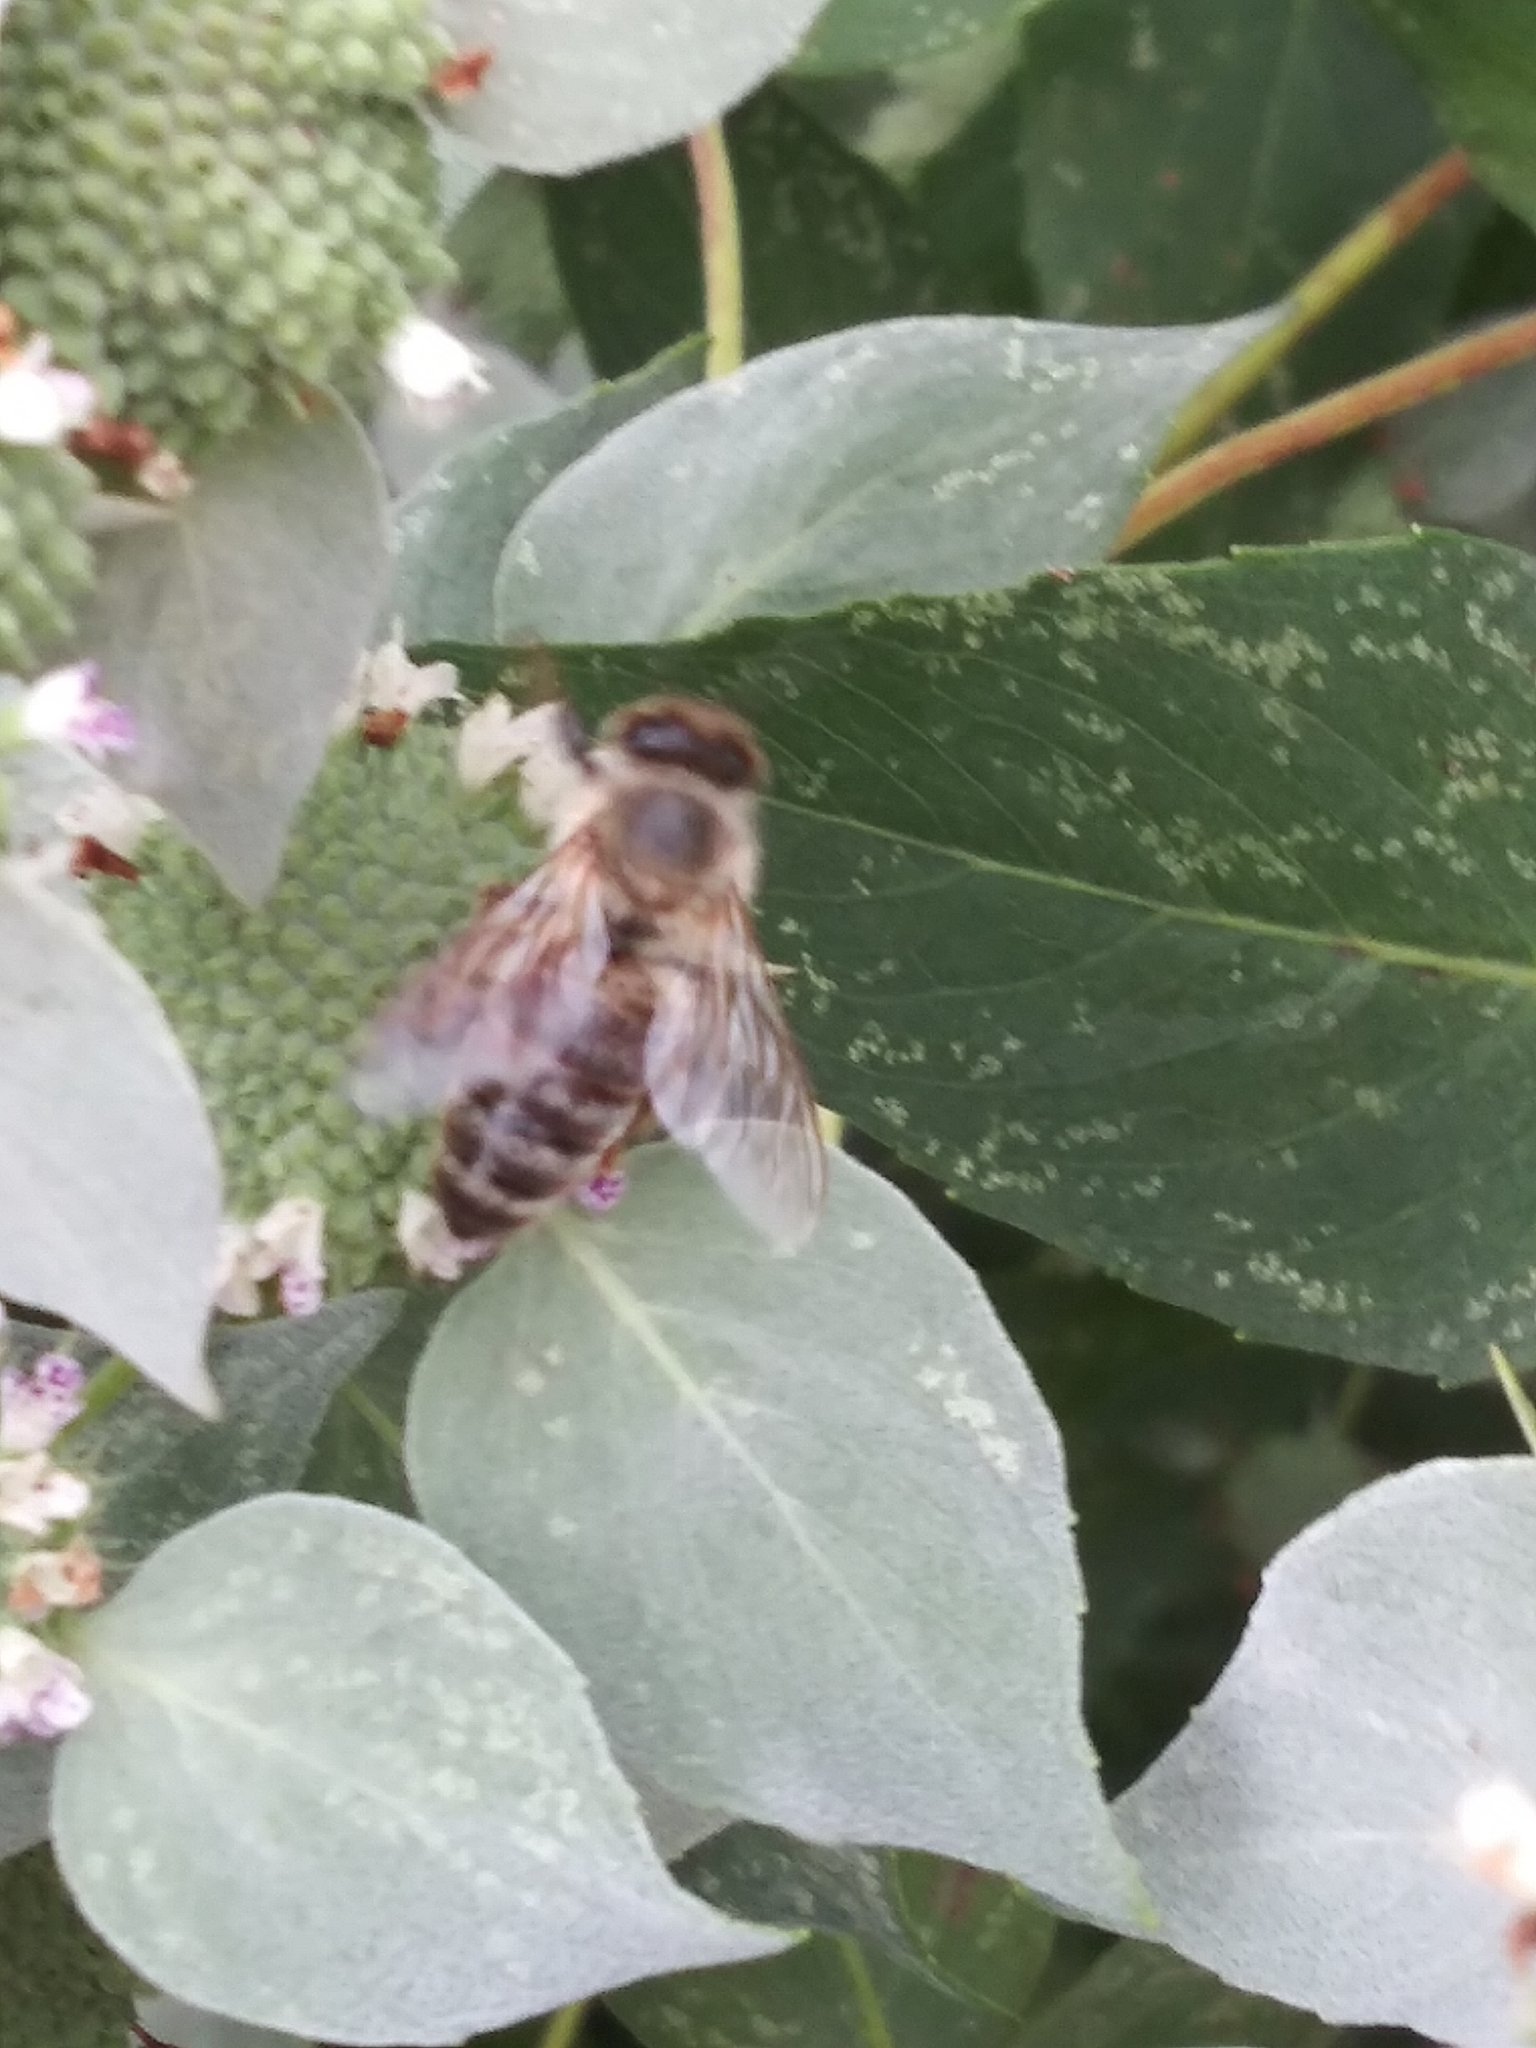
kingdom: Animalia
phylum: Arthropoda
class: Insecta
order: Hymenoptera
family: Apidae
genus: Apis
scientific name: Apis mellifera
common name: Honey bee
